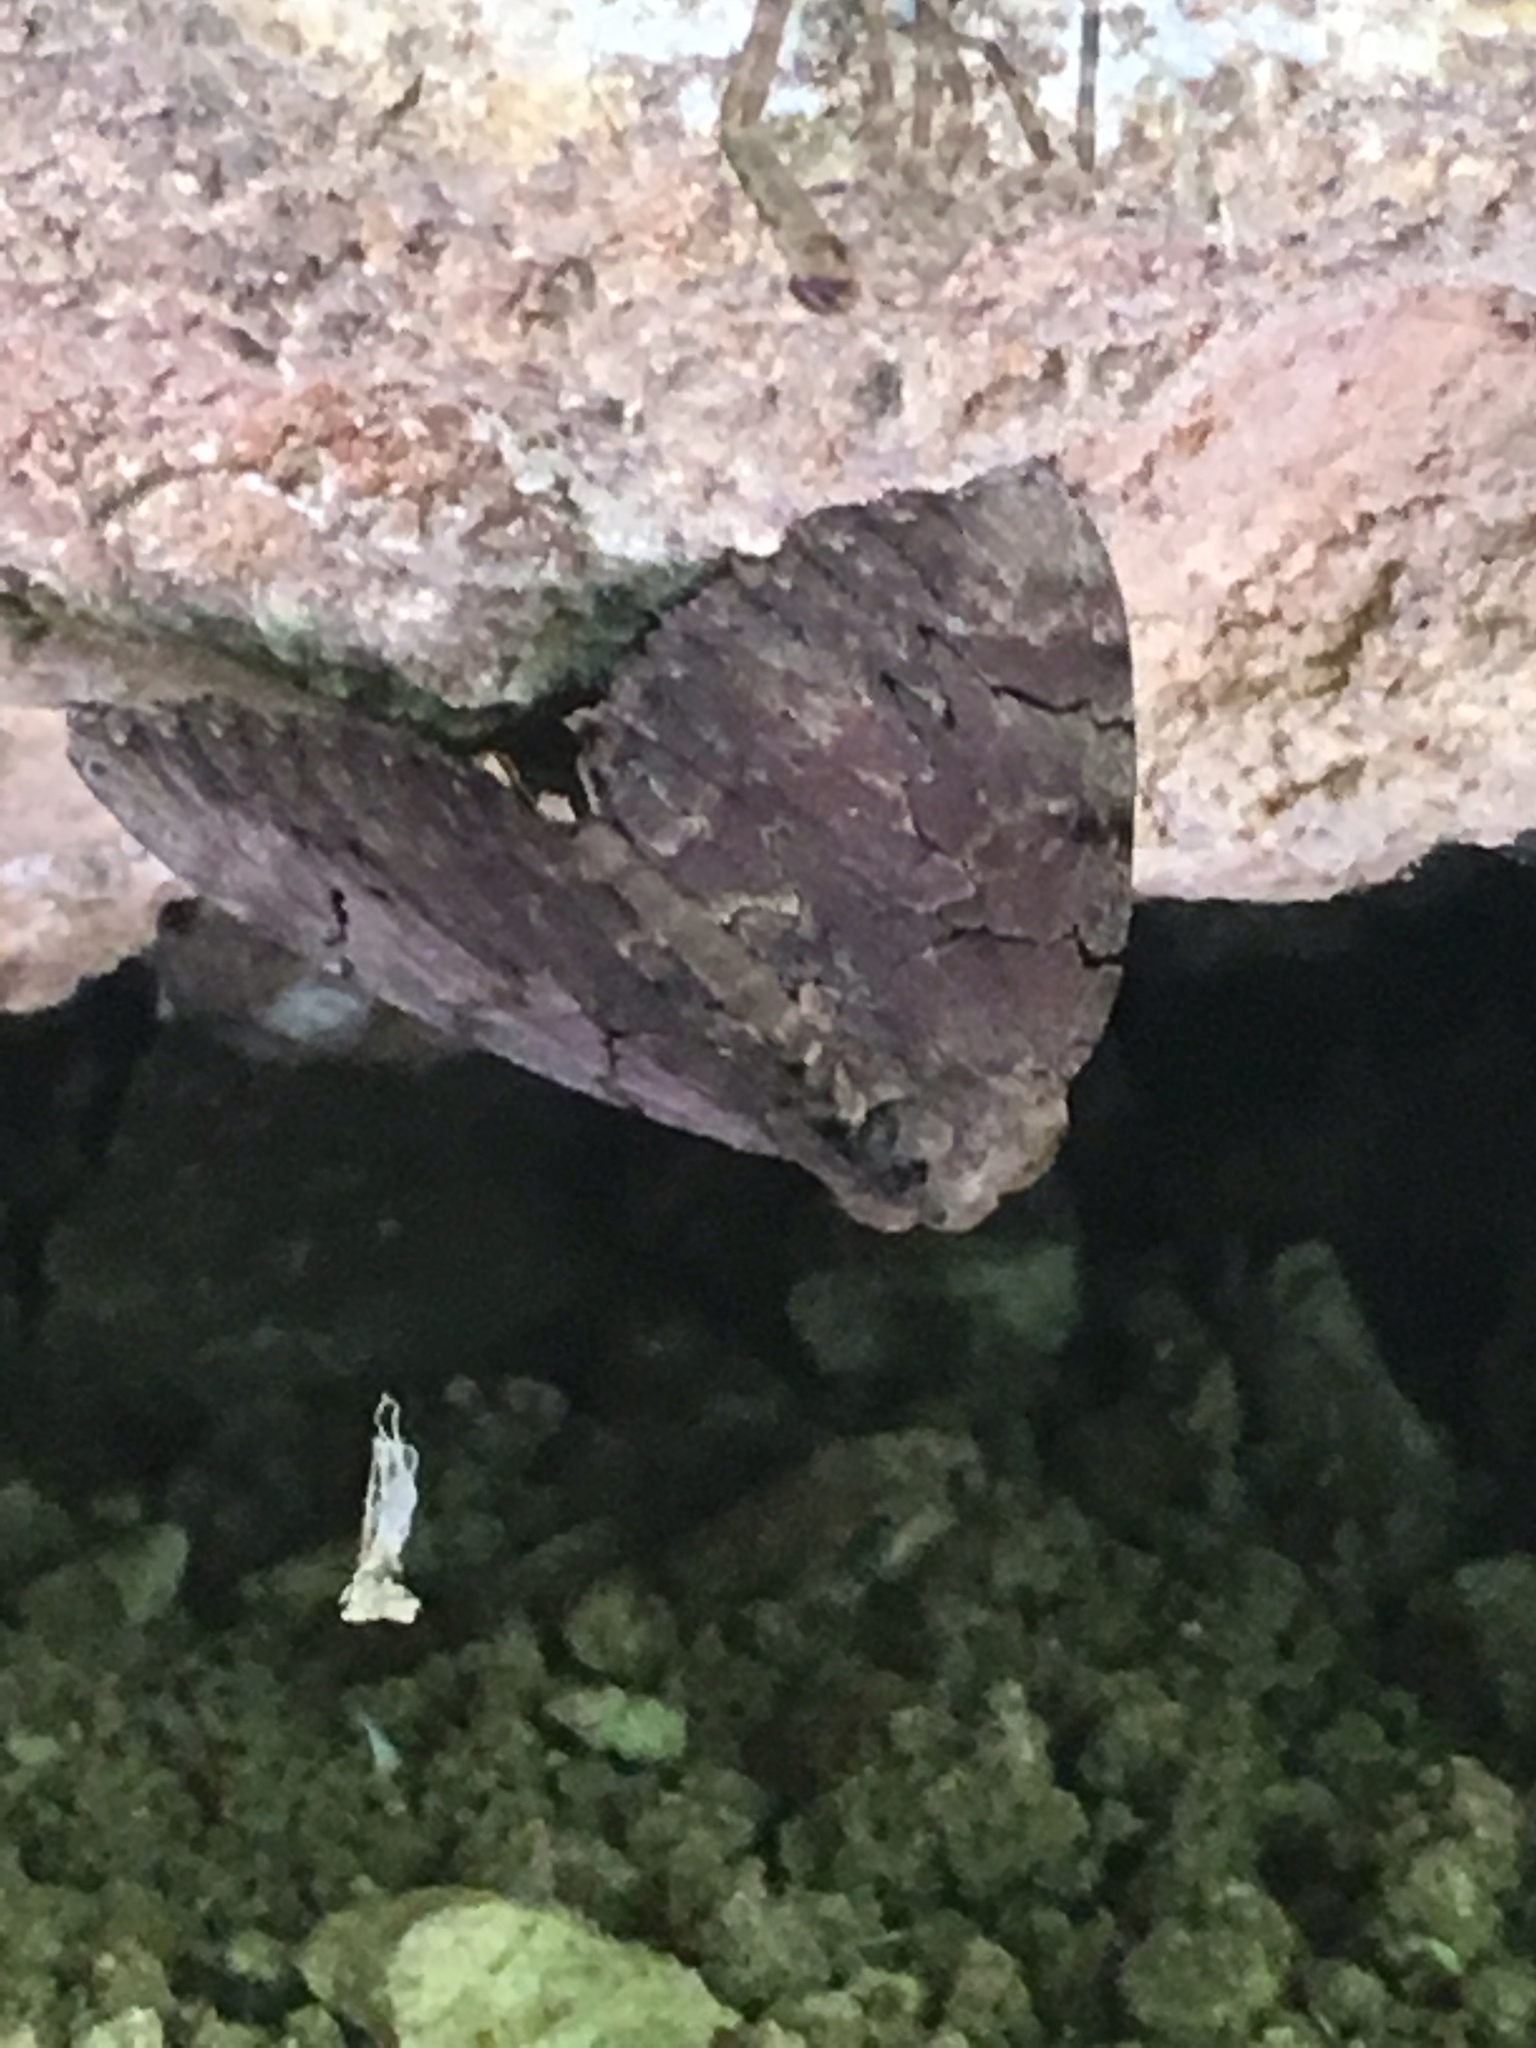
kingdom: Animalia
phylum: Arthropoda
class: Insecta
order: Lepidoptera
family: Erebidae
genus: Catocala
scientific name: Catocala cara
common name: Darling underwing
